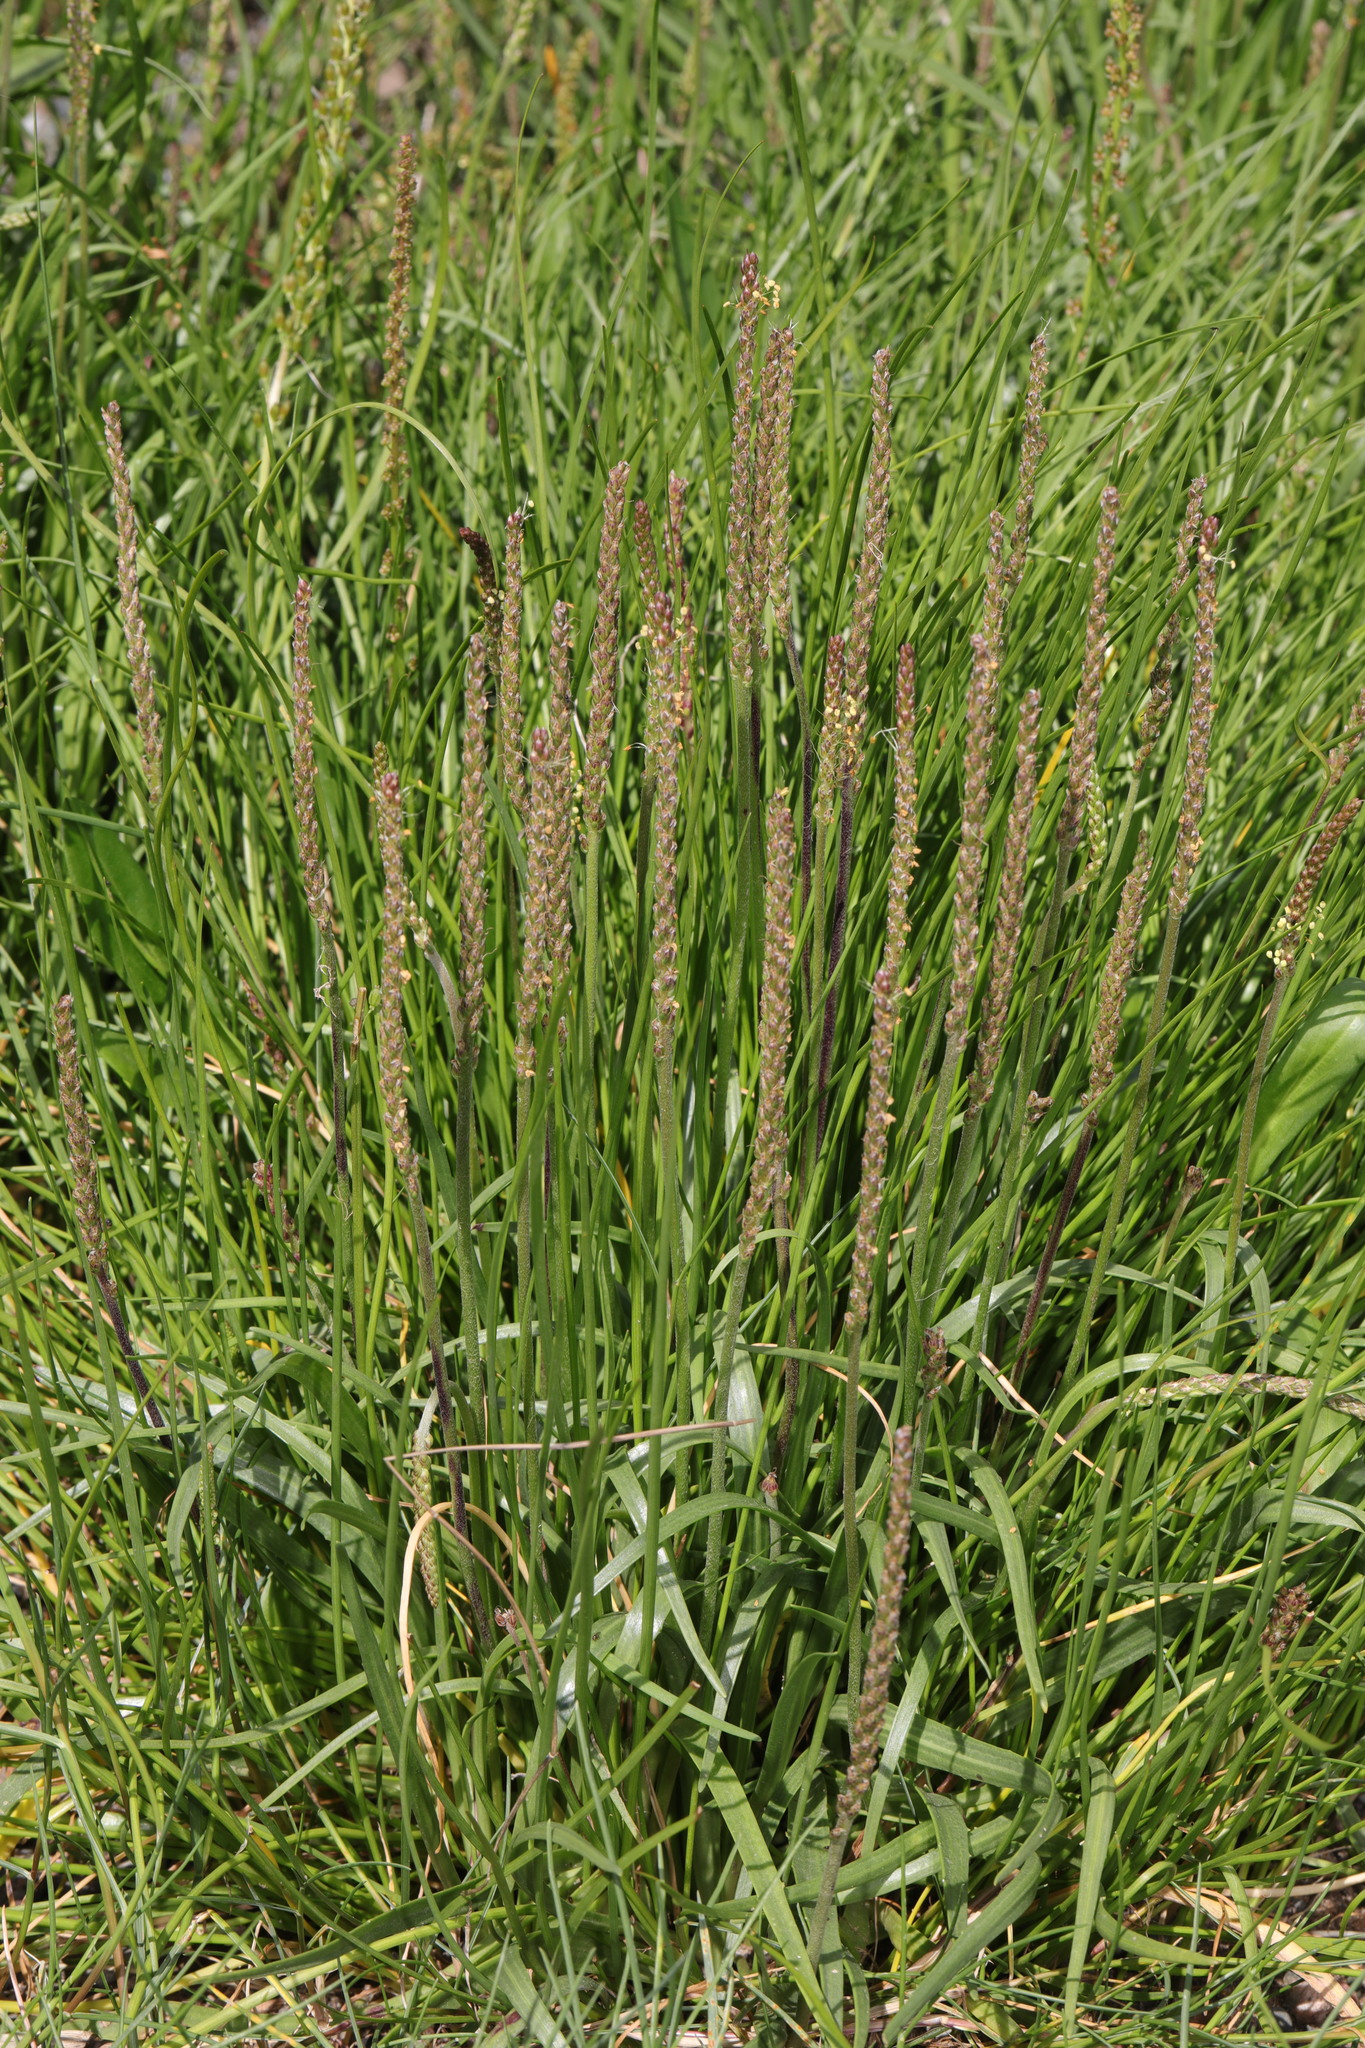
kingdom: Plantae
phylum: Tracheophyta
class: Liliopsida
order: Alismatales
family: Juncaginaceae
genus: Triglochin
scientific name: Triglochin maritima
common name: Sea arrowgrass
